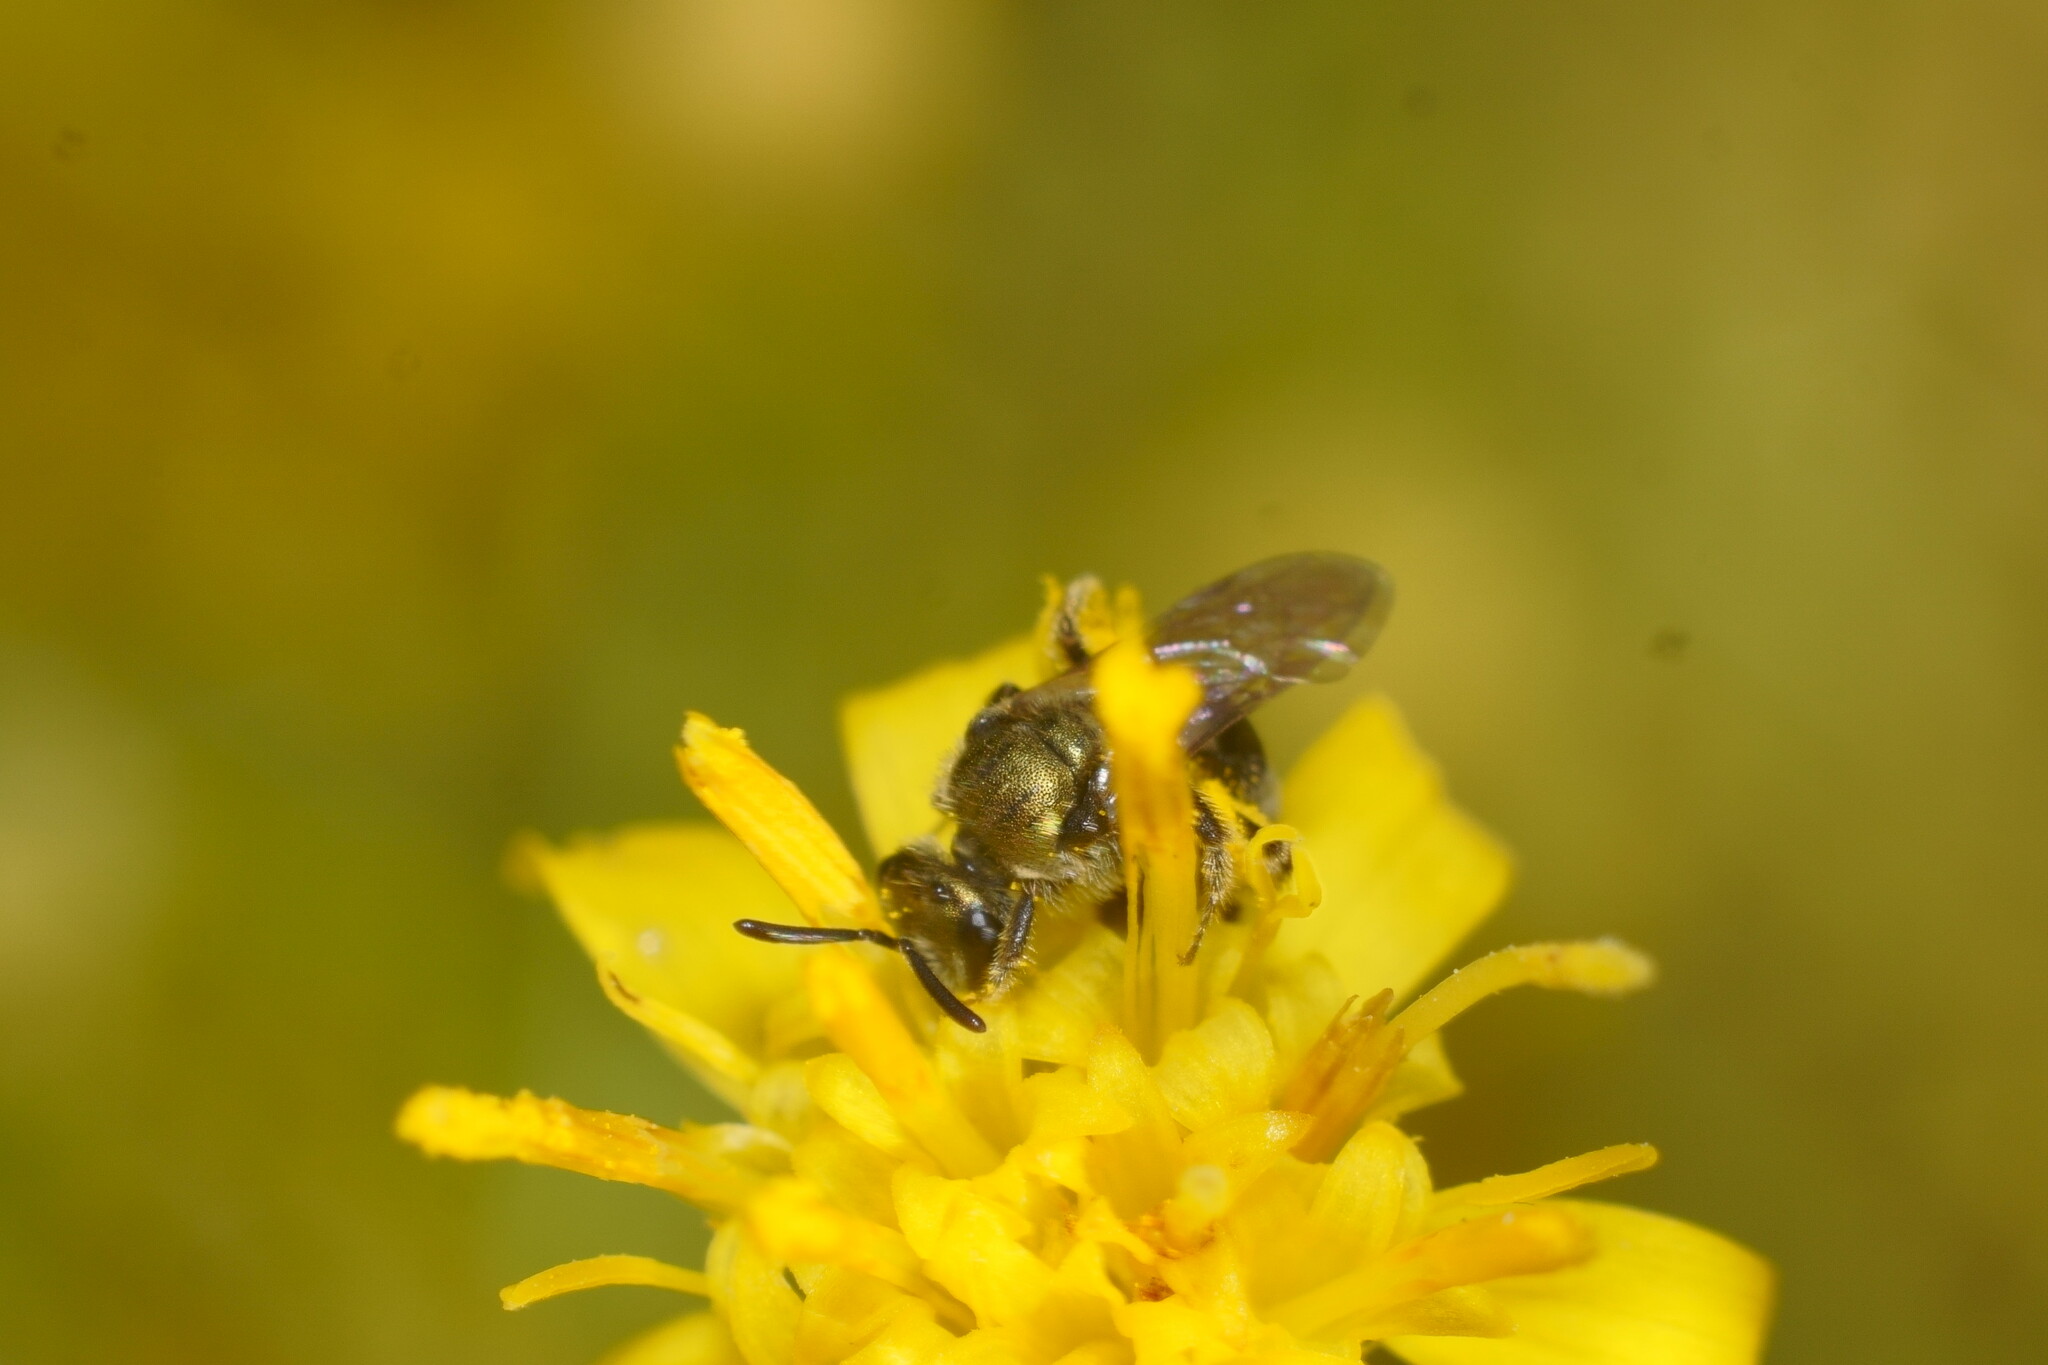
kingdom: Animalia
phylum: Arthropoda
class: Insecta
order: Hymenoptera
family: Halictidae
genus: Dialictus
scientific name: Dialictus
